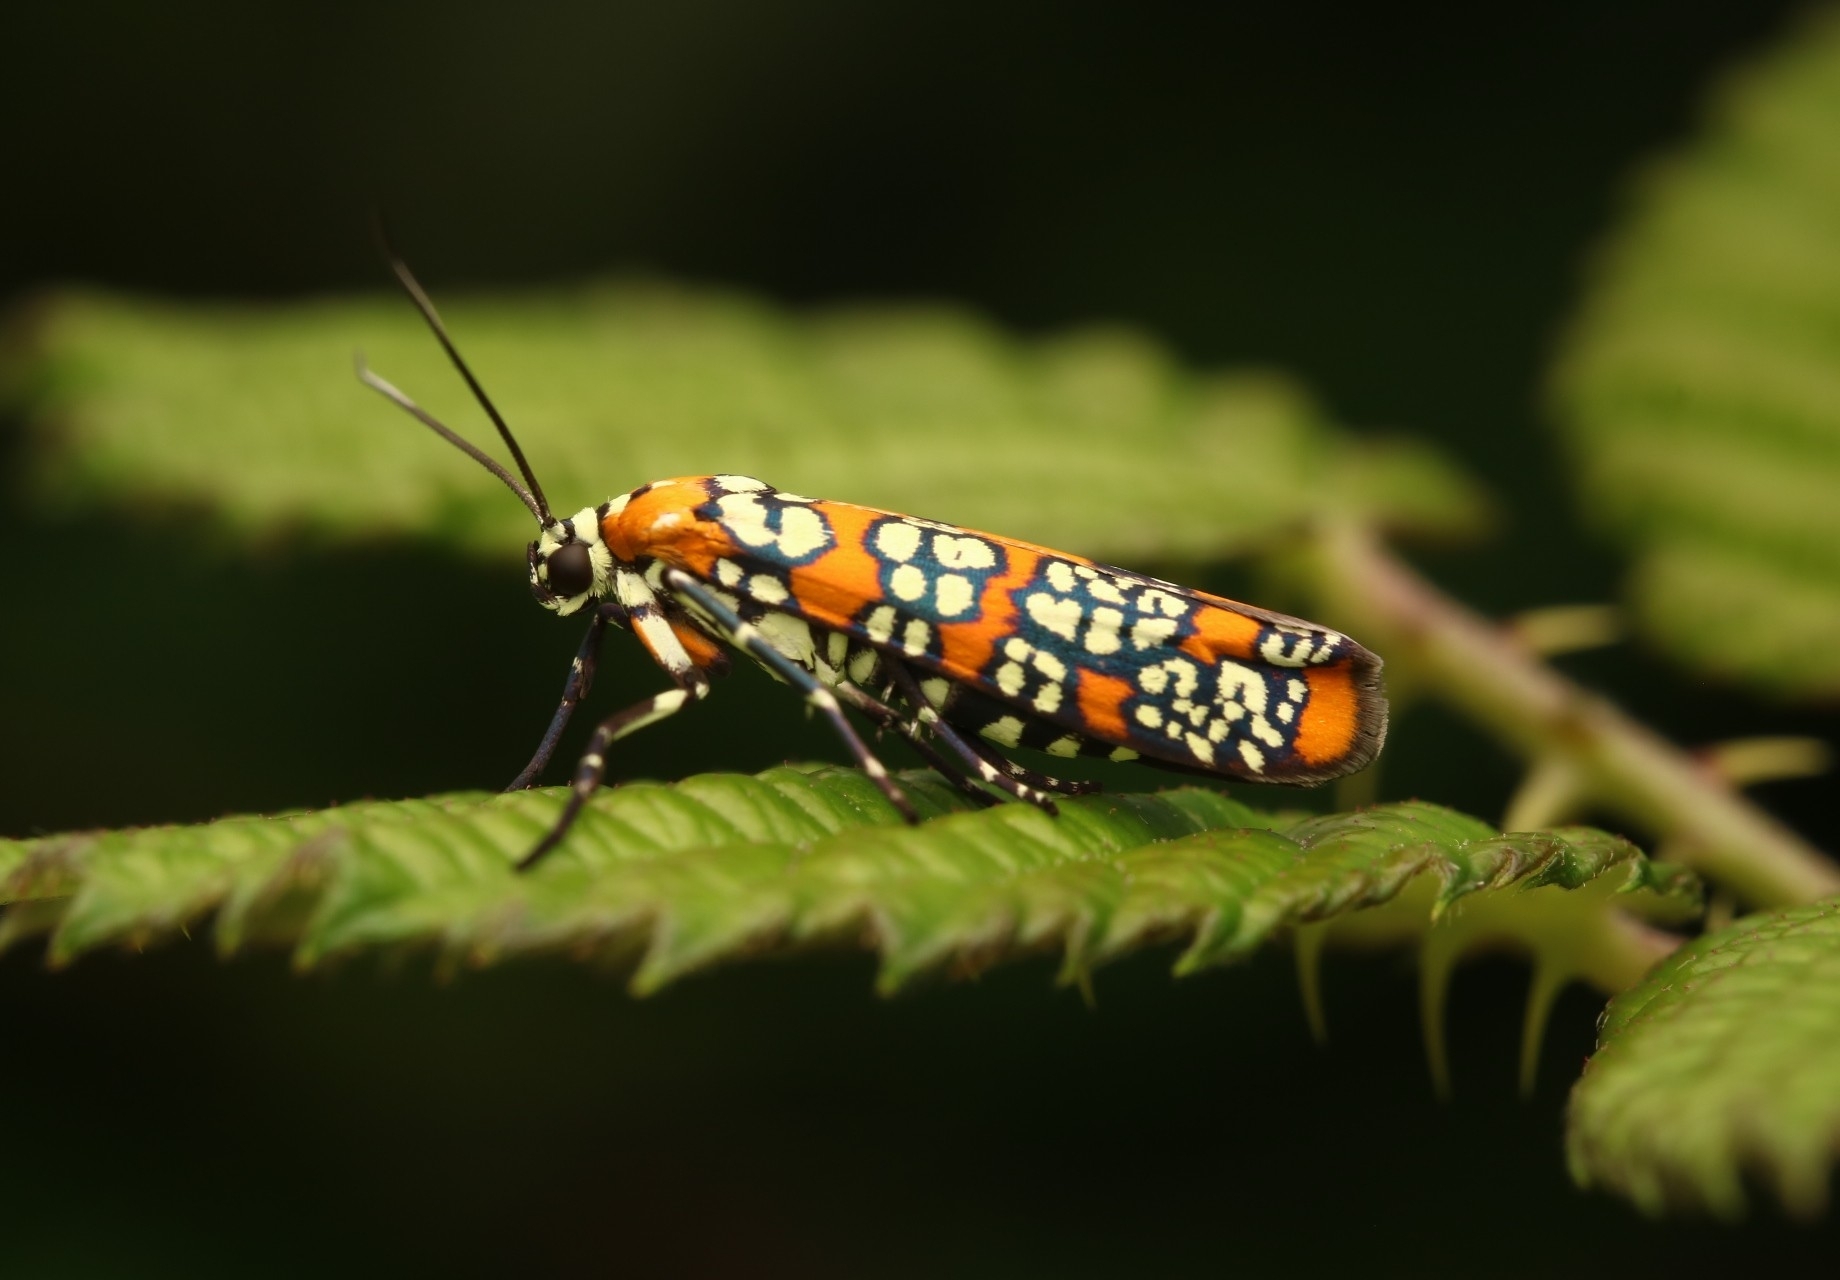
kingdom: Animalia
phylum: Arthropoda
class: Insecta
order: Lepidoptera
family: Attevidae
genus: Atteva
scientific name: Atteva punctella
